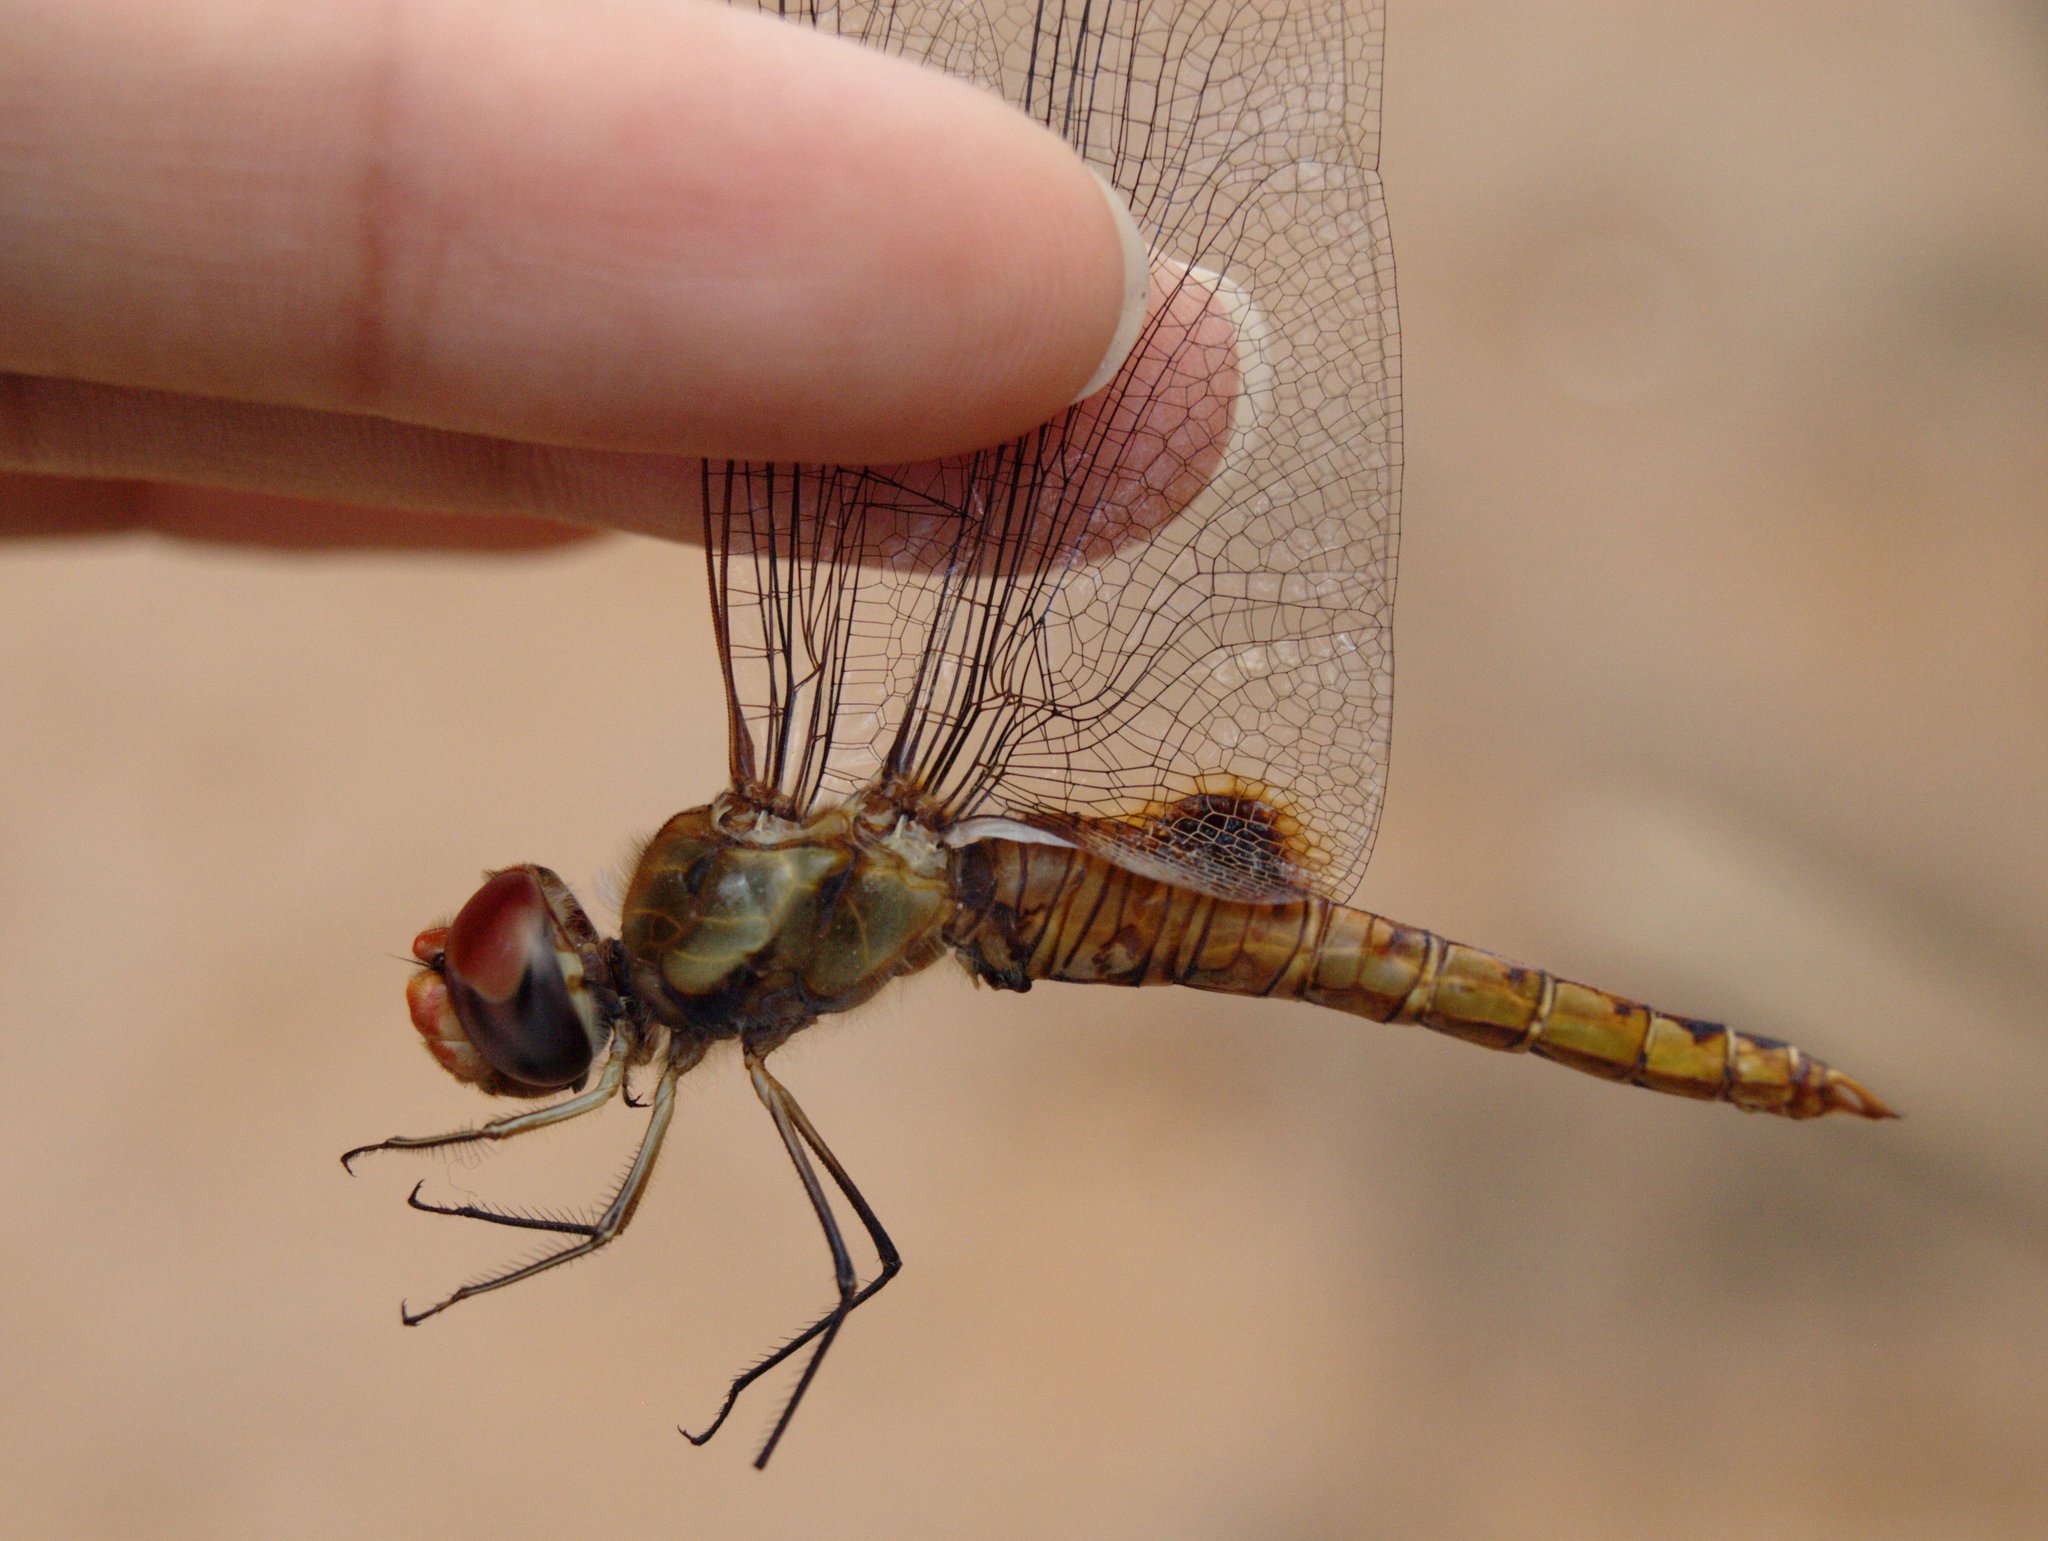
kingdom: Animalia
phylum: Arthropoda
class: Insecta
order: Odonata
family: Libellulidae
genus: Pantala
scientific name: Pantala hymenaea
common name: Spot-winged glider
